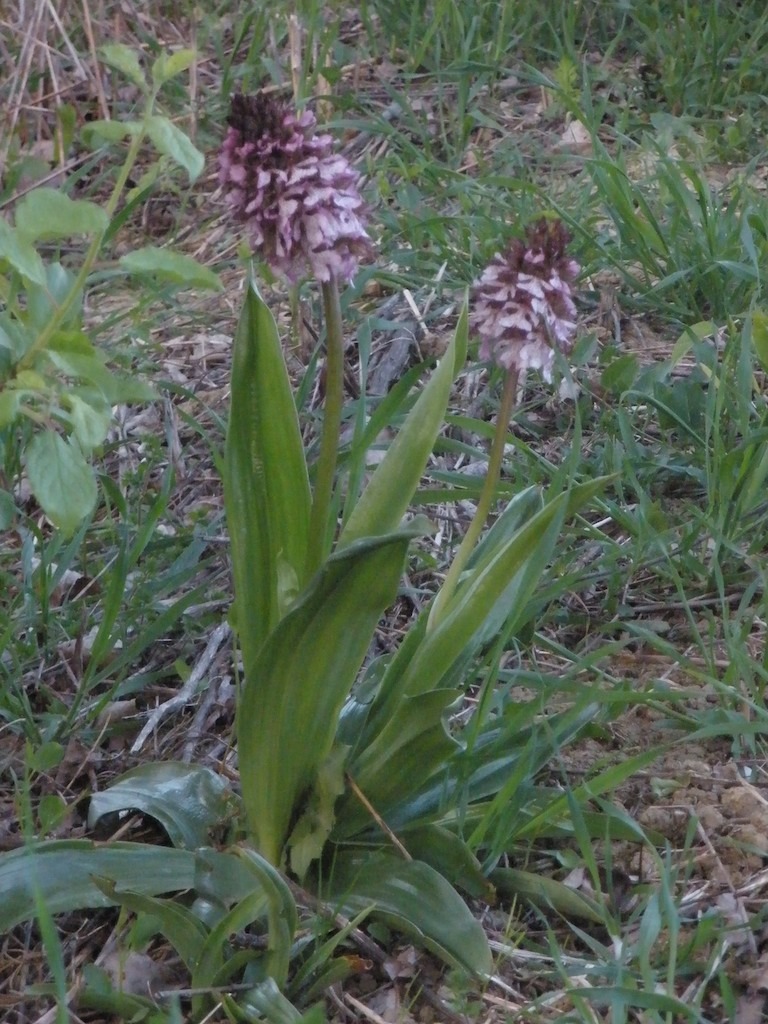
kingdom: Plantae
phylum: Tracheophyta
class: Liliopsida
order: Asparagales
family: Orchidaceae
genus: Orchis
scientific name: Orchis purpurea
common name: Lady orchid
